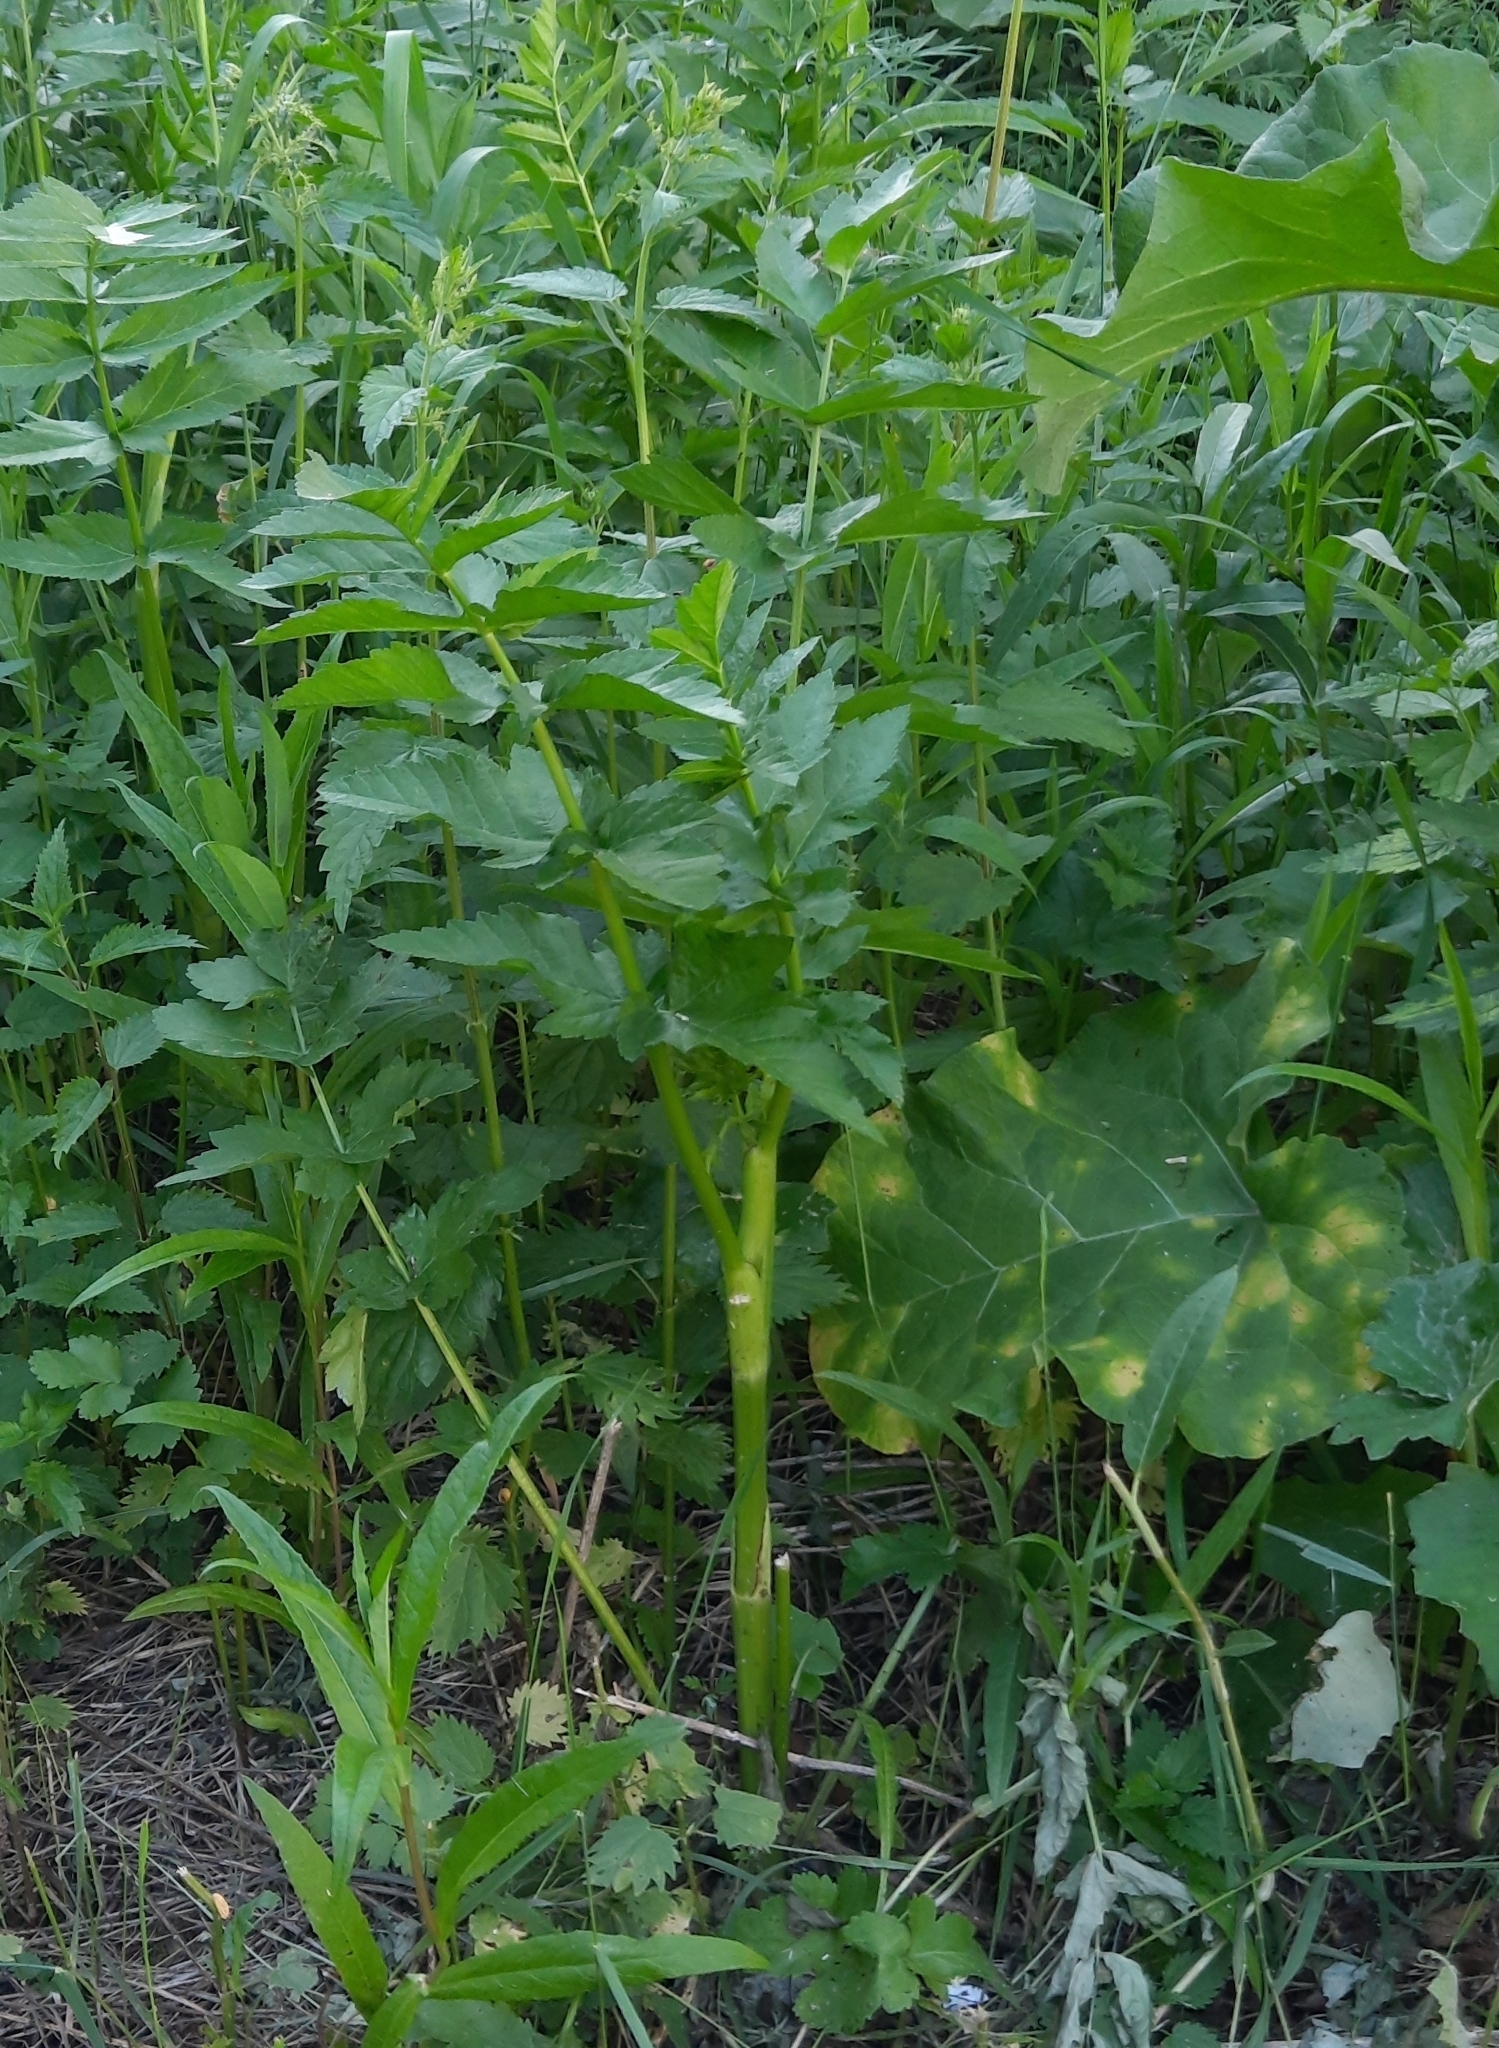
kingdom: Plantae
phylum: Tracheophyta
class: Magnoliopsida
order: Apiales
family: Apiaceae
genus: Pastinaca
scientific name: Pastinaca sativa
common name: Wild parsnip
